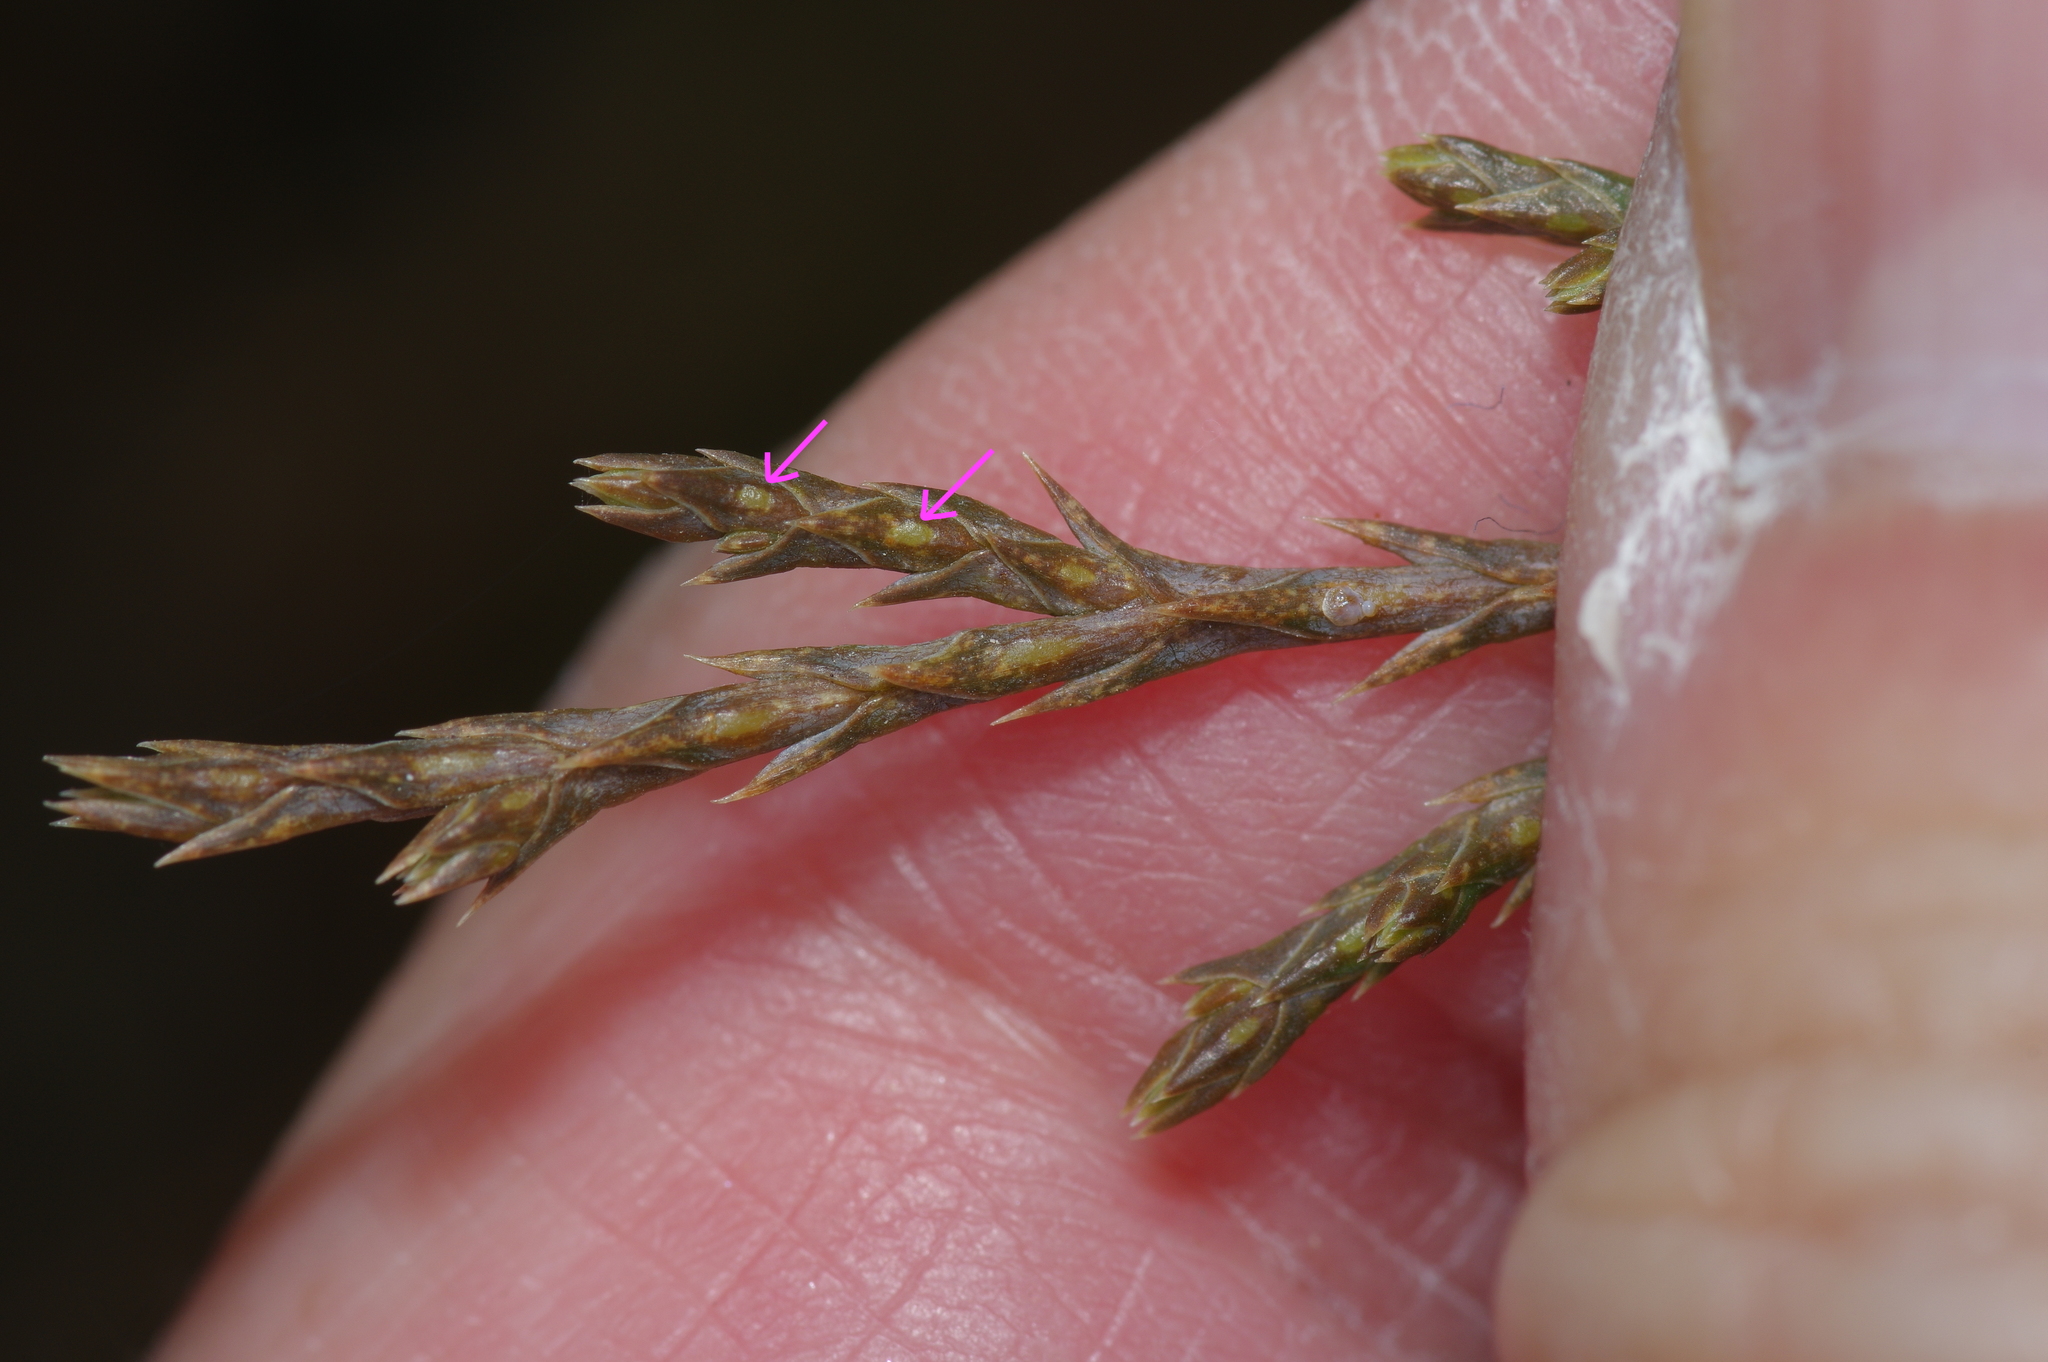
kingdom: Plantae
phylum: Tracheophyta
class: Pinopsida
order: Pinales
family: Cupressaceae
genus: Juniperus
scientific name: Juniperus ashei
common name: Mexican juniper
